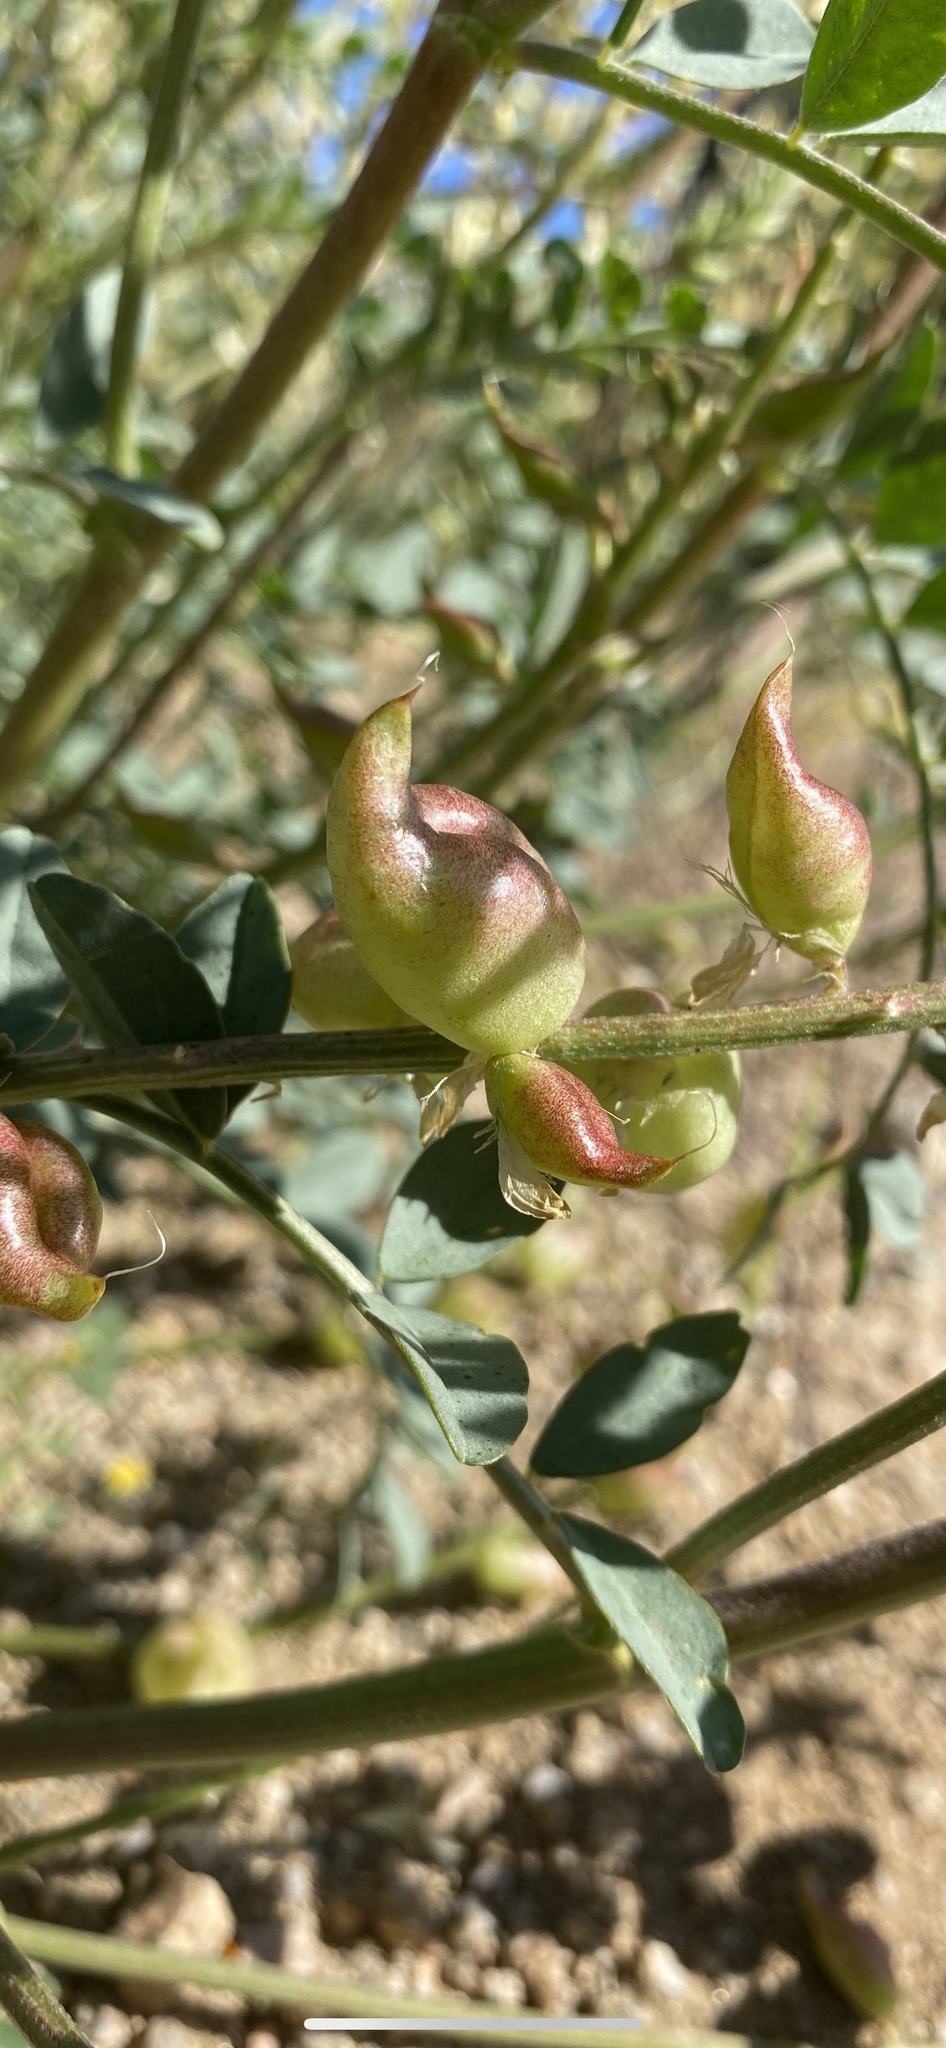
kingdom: Plantae
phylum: Tracheophyta
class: Magnoliopsida
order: Fabales
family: Fabaceae
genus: Astragalus
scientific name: Astragalus lentiginosus
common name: Freckled milkvetch
